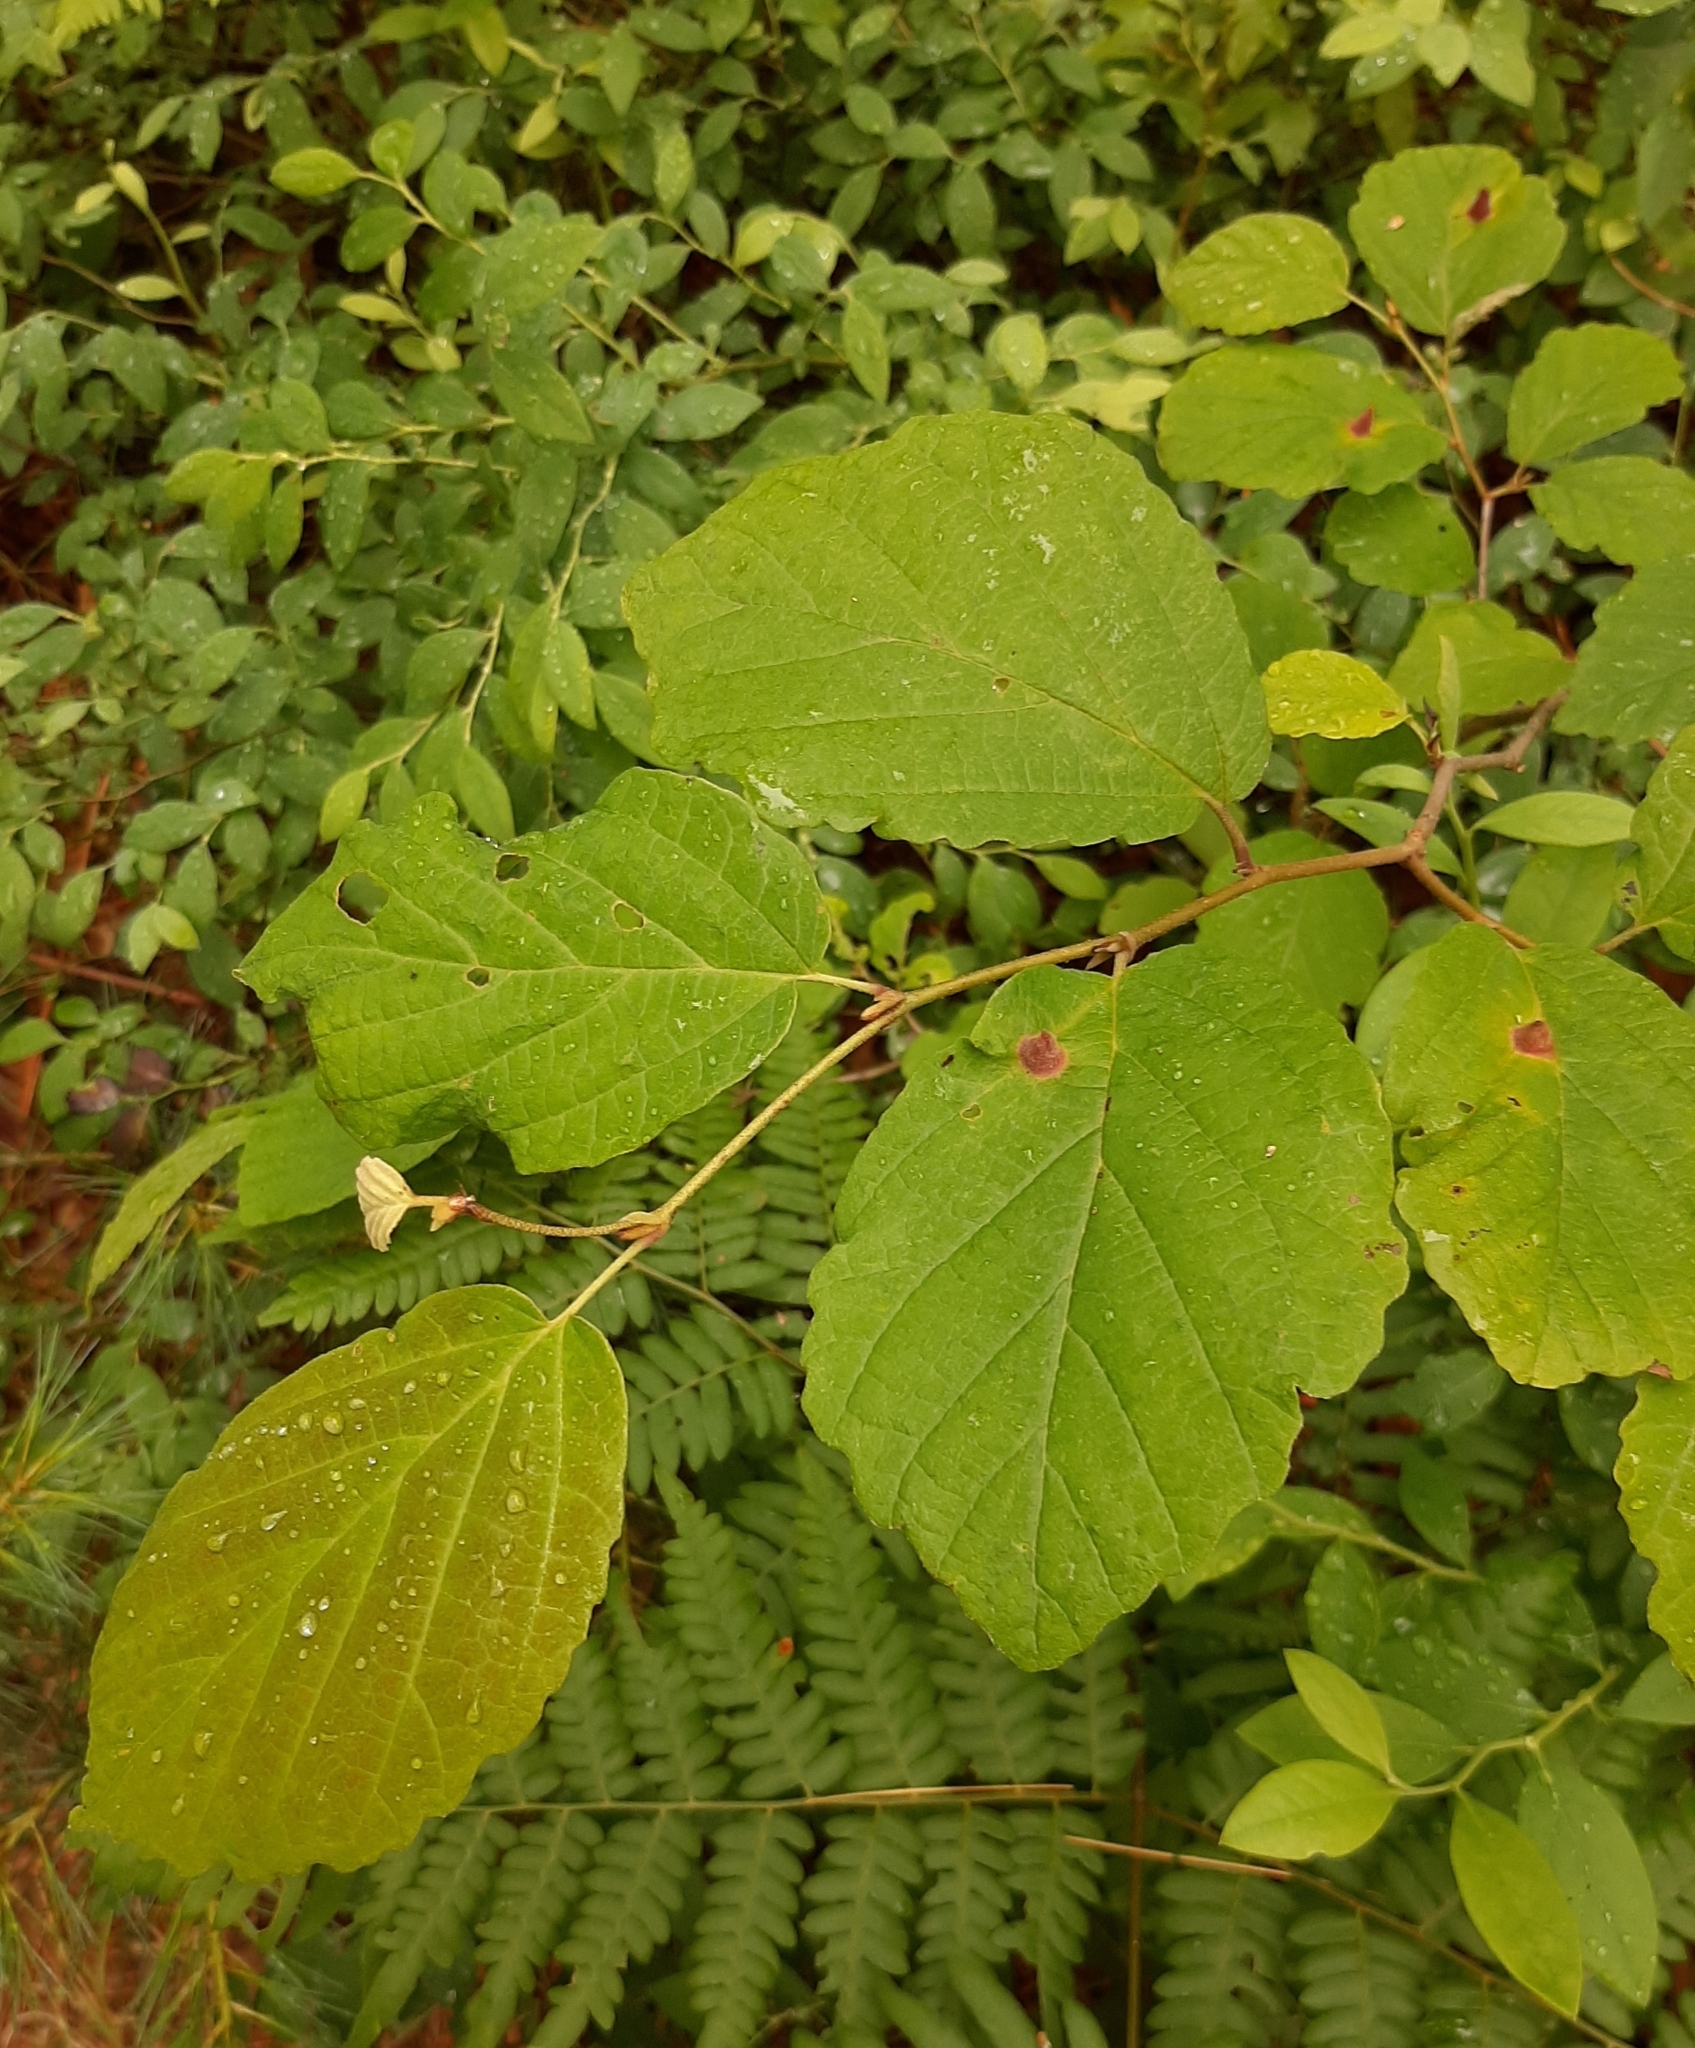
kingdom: Animalia
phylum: Arthropoda
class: Insecta
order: Hemiptera
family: Aphididae
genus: Hormaphis
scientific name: Hormaphis hamamelidis
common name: Witch-hazel cone gall aphid
